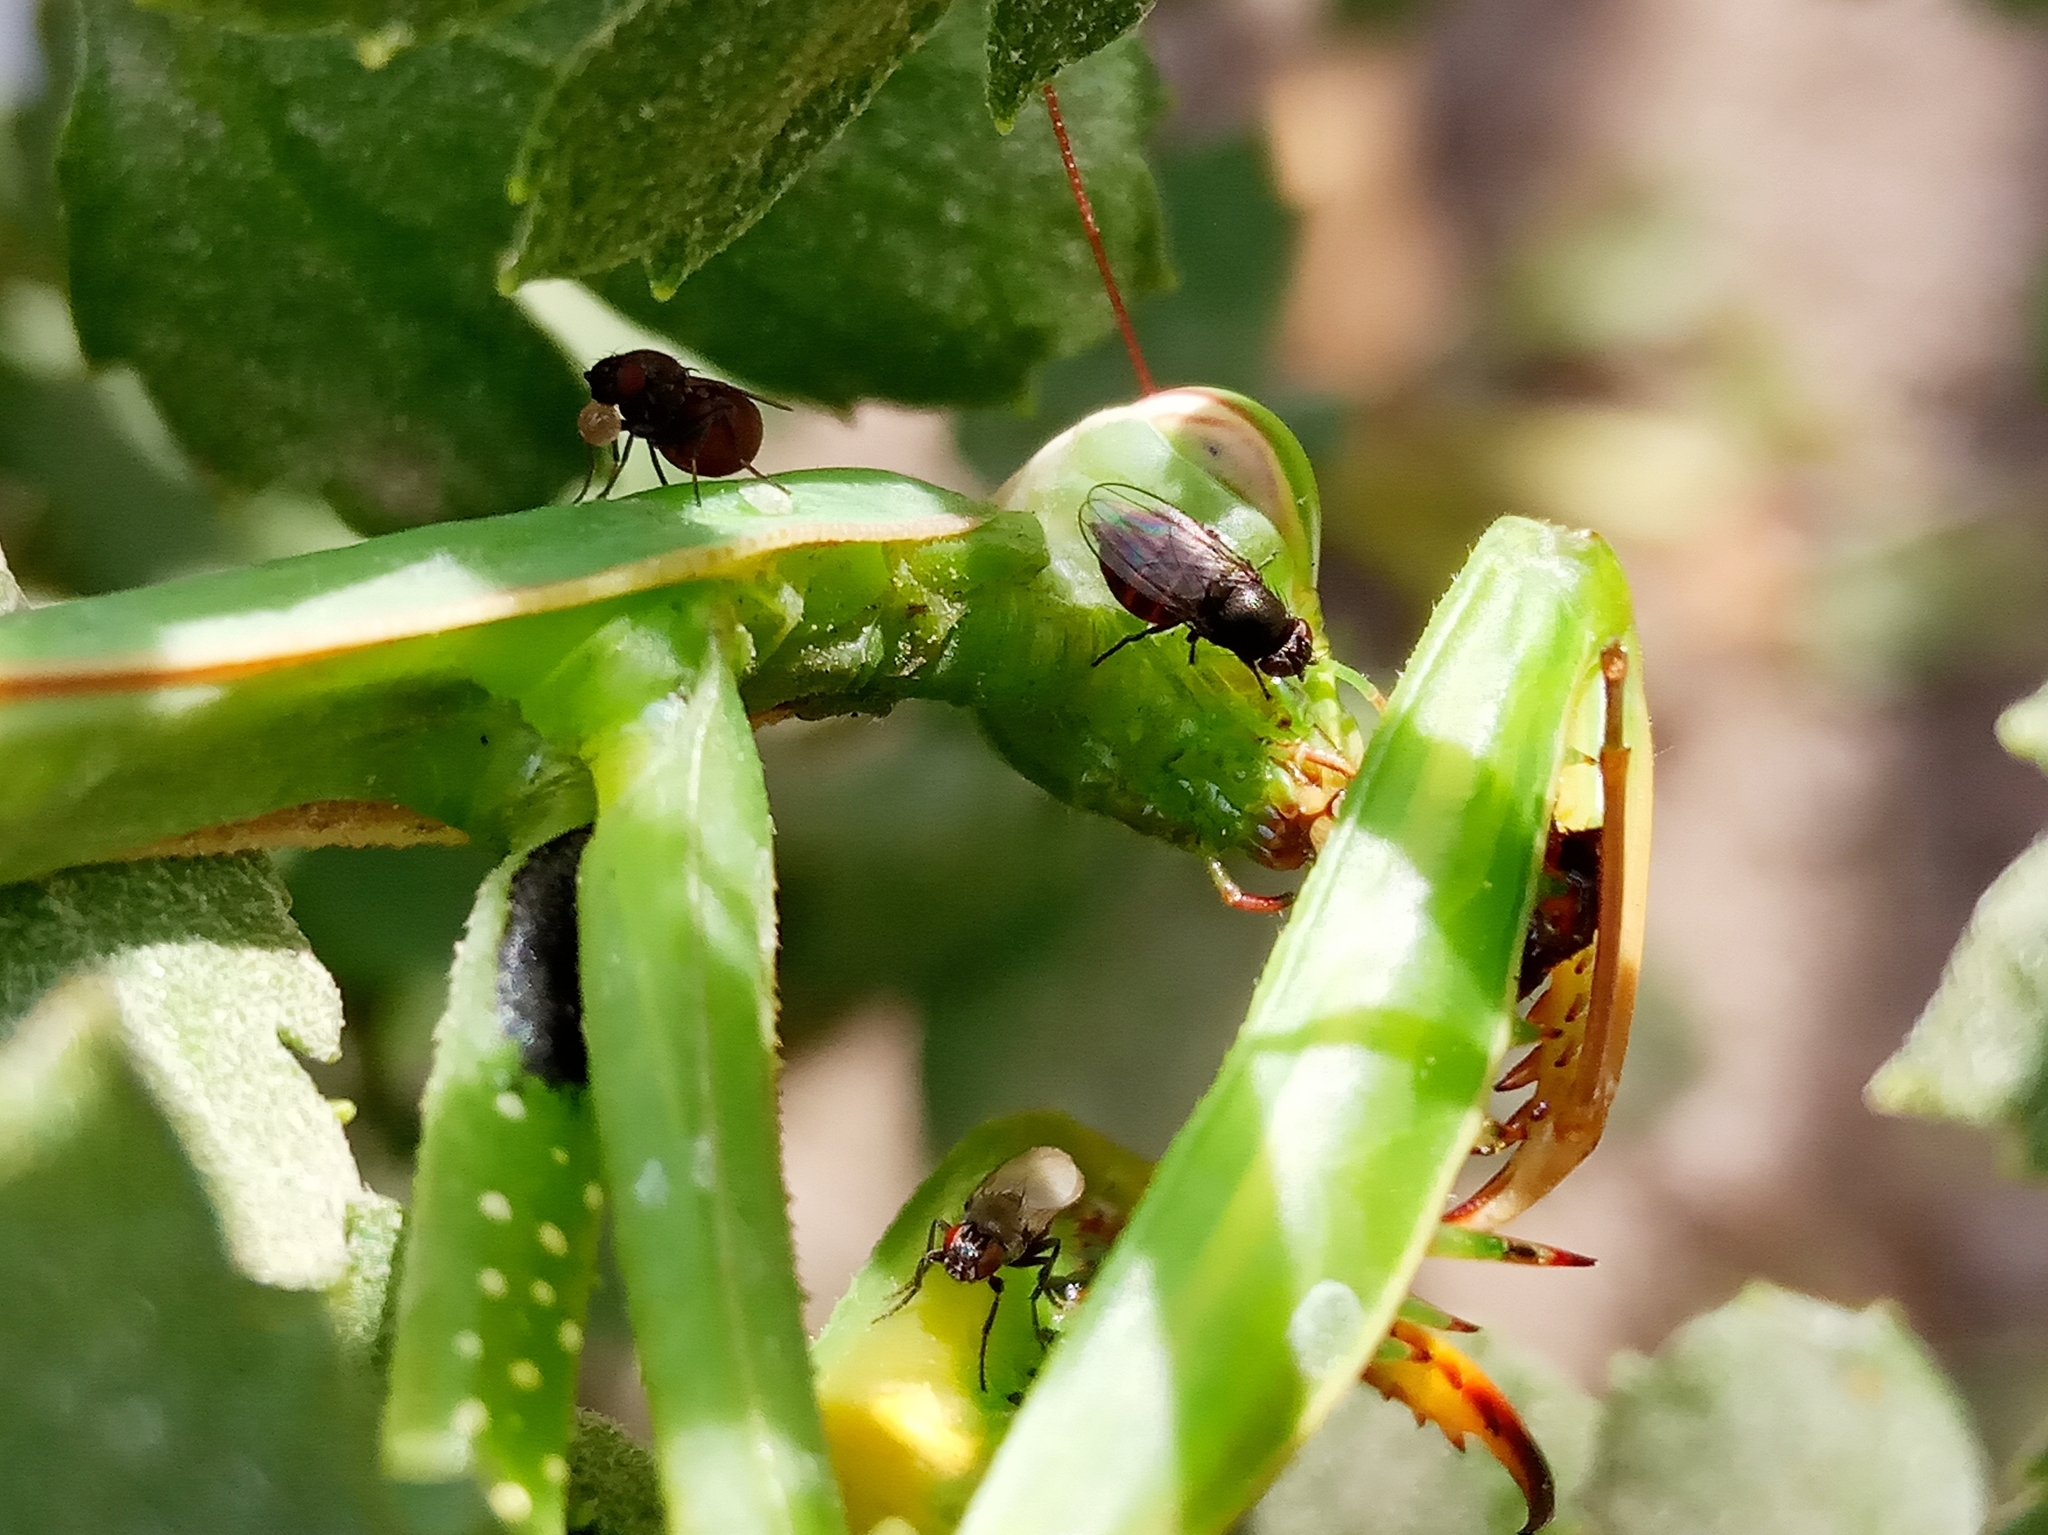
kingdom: Animalia
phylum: Arthropoda
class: Insecta
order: Diptera
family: Milichiidae
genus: Desmometopa
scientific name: Desmometopa
